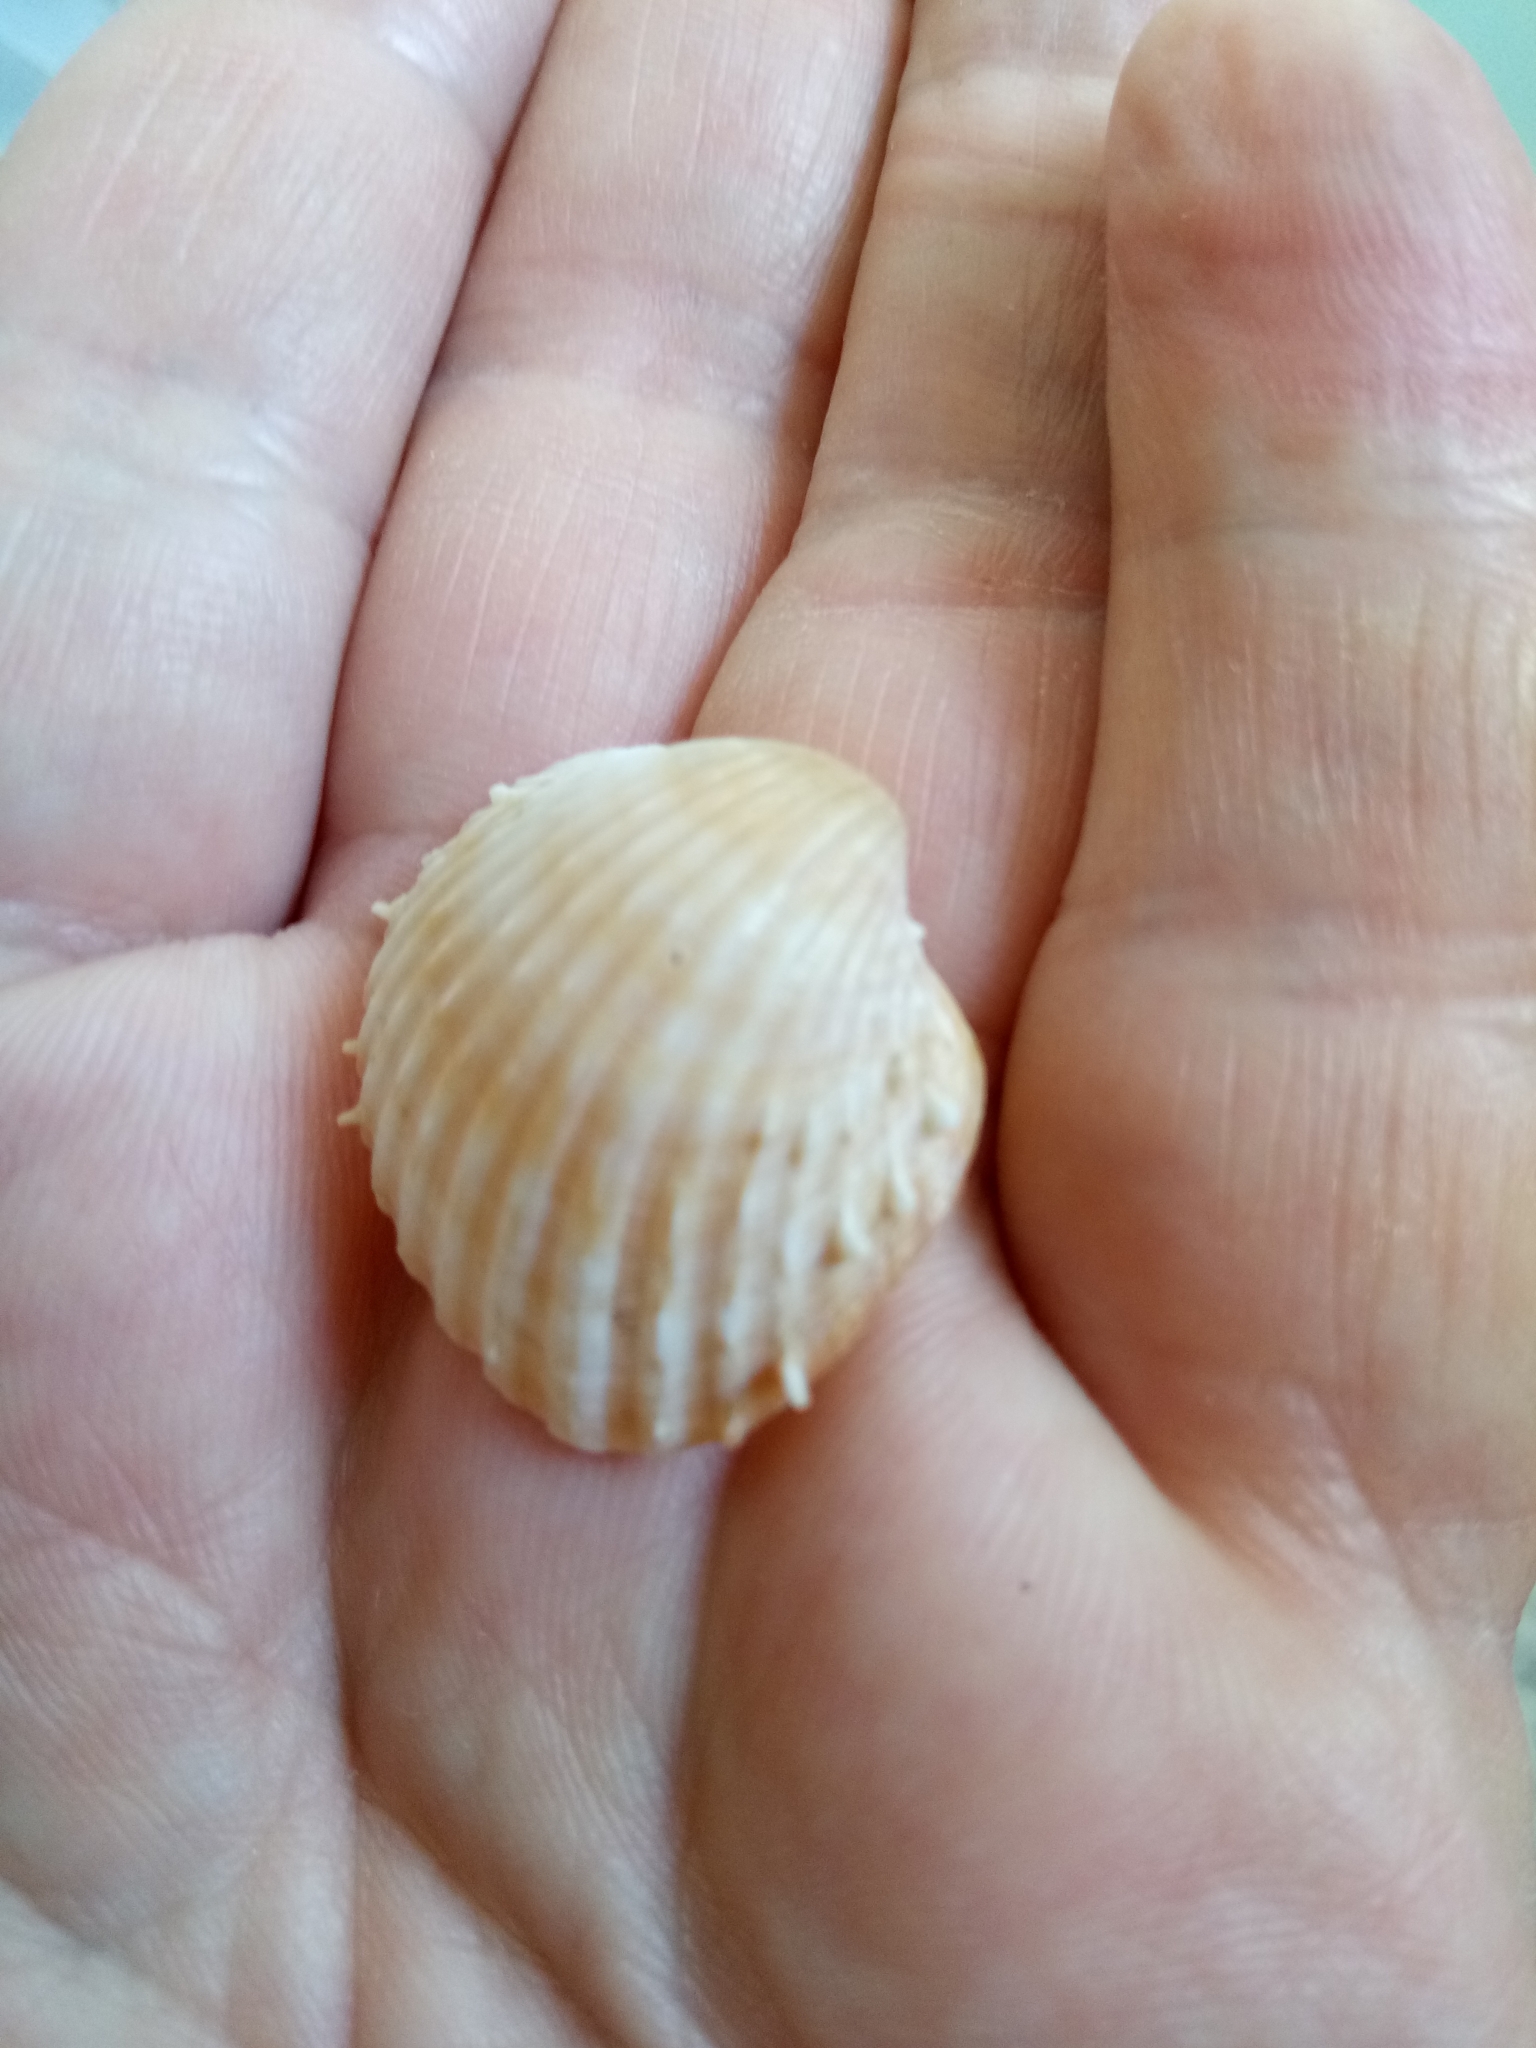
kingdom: Animalia
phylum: Mollusca
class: Bivalvia
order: Cardiida
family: Cardiidae
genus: Acanthocardia
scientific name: Acanthocardia aculeata
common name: Spiny cockle
